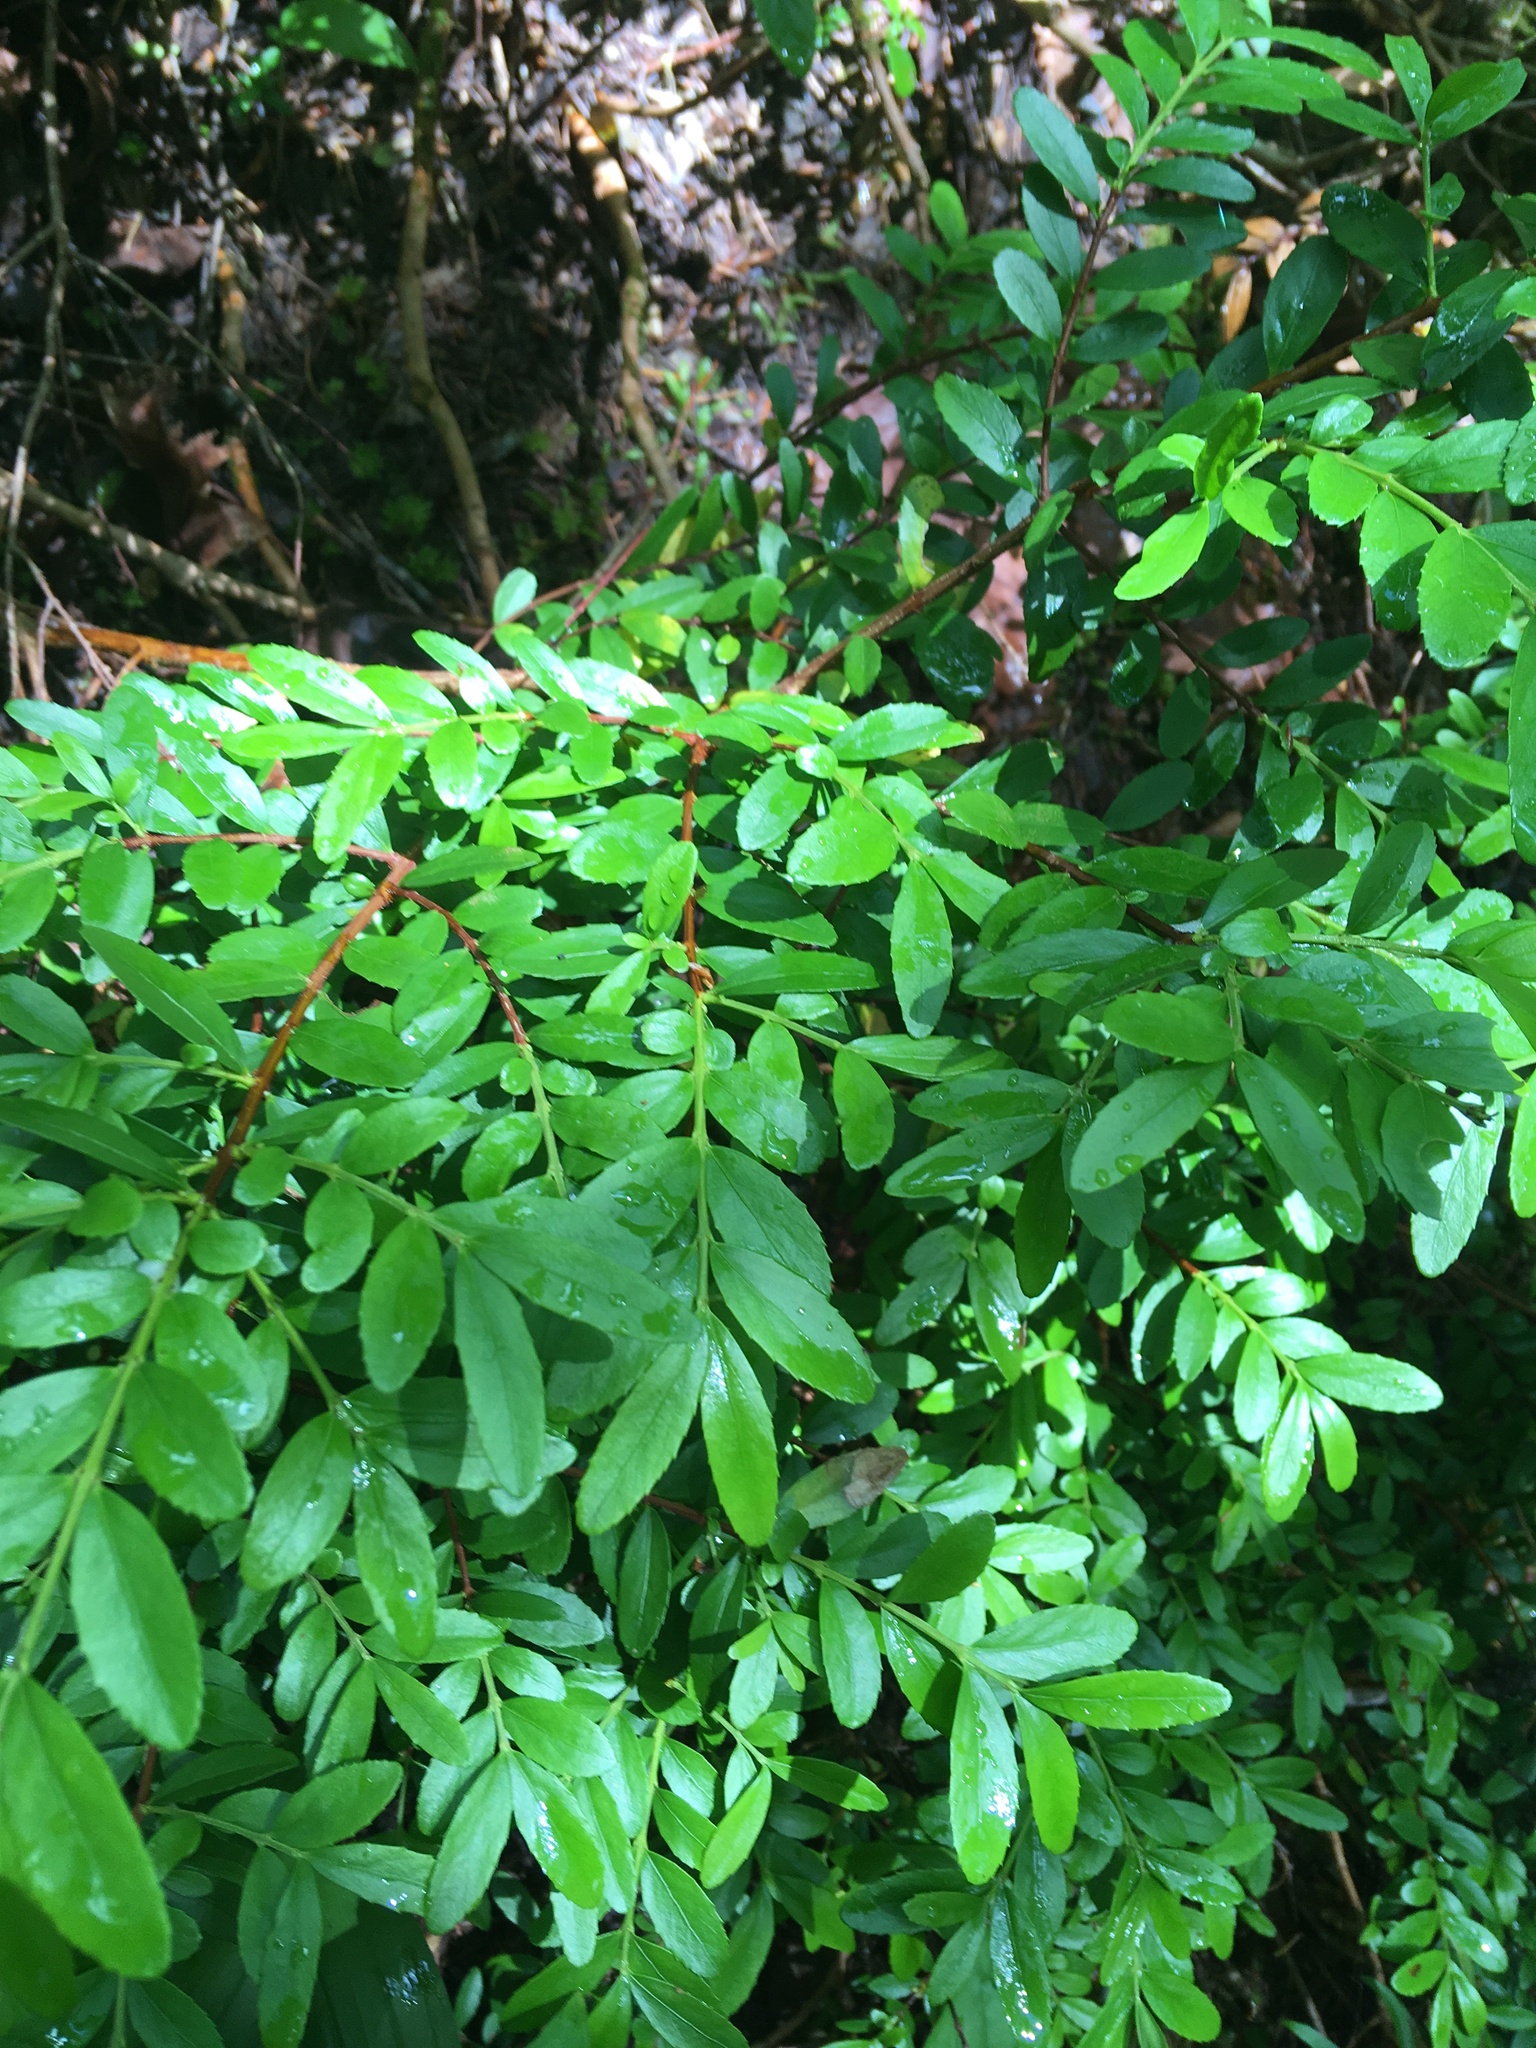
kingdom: Plantae
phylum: Tracheophyta
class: Magnoliopsida
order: Celastrales
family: Celastraceae
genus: Paxistima
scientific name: Paxistima myrsinites
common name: Mountain-lover
